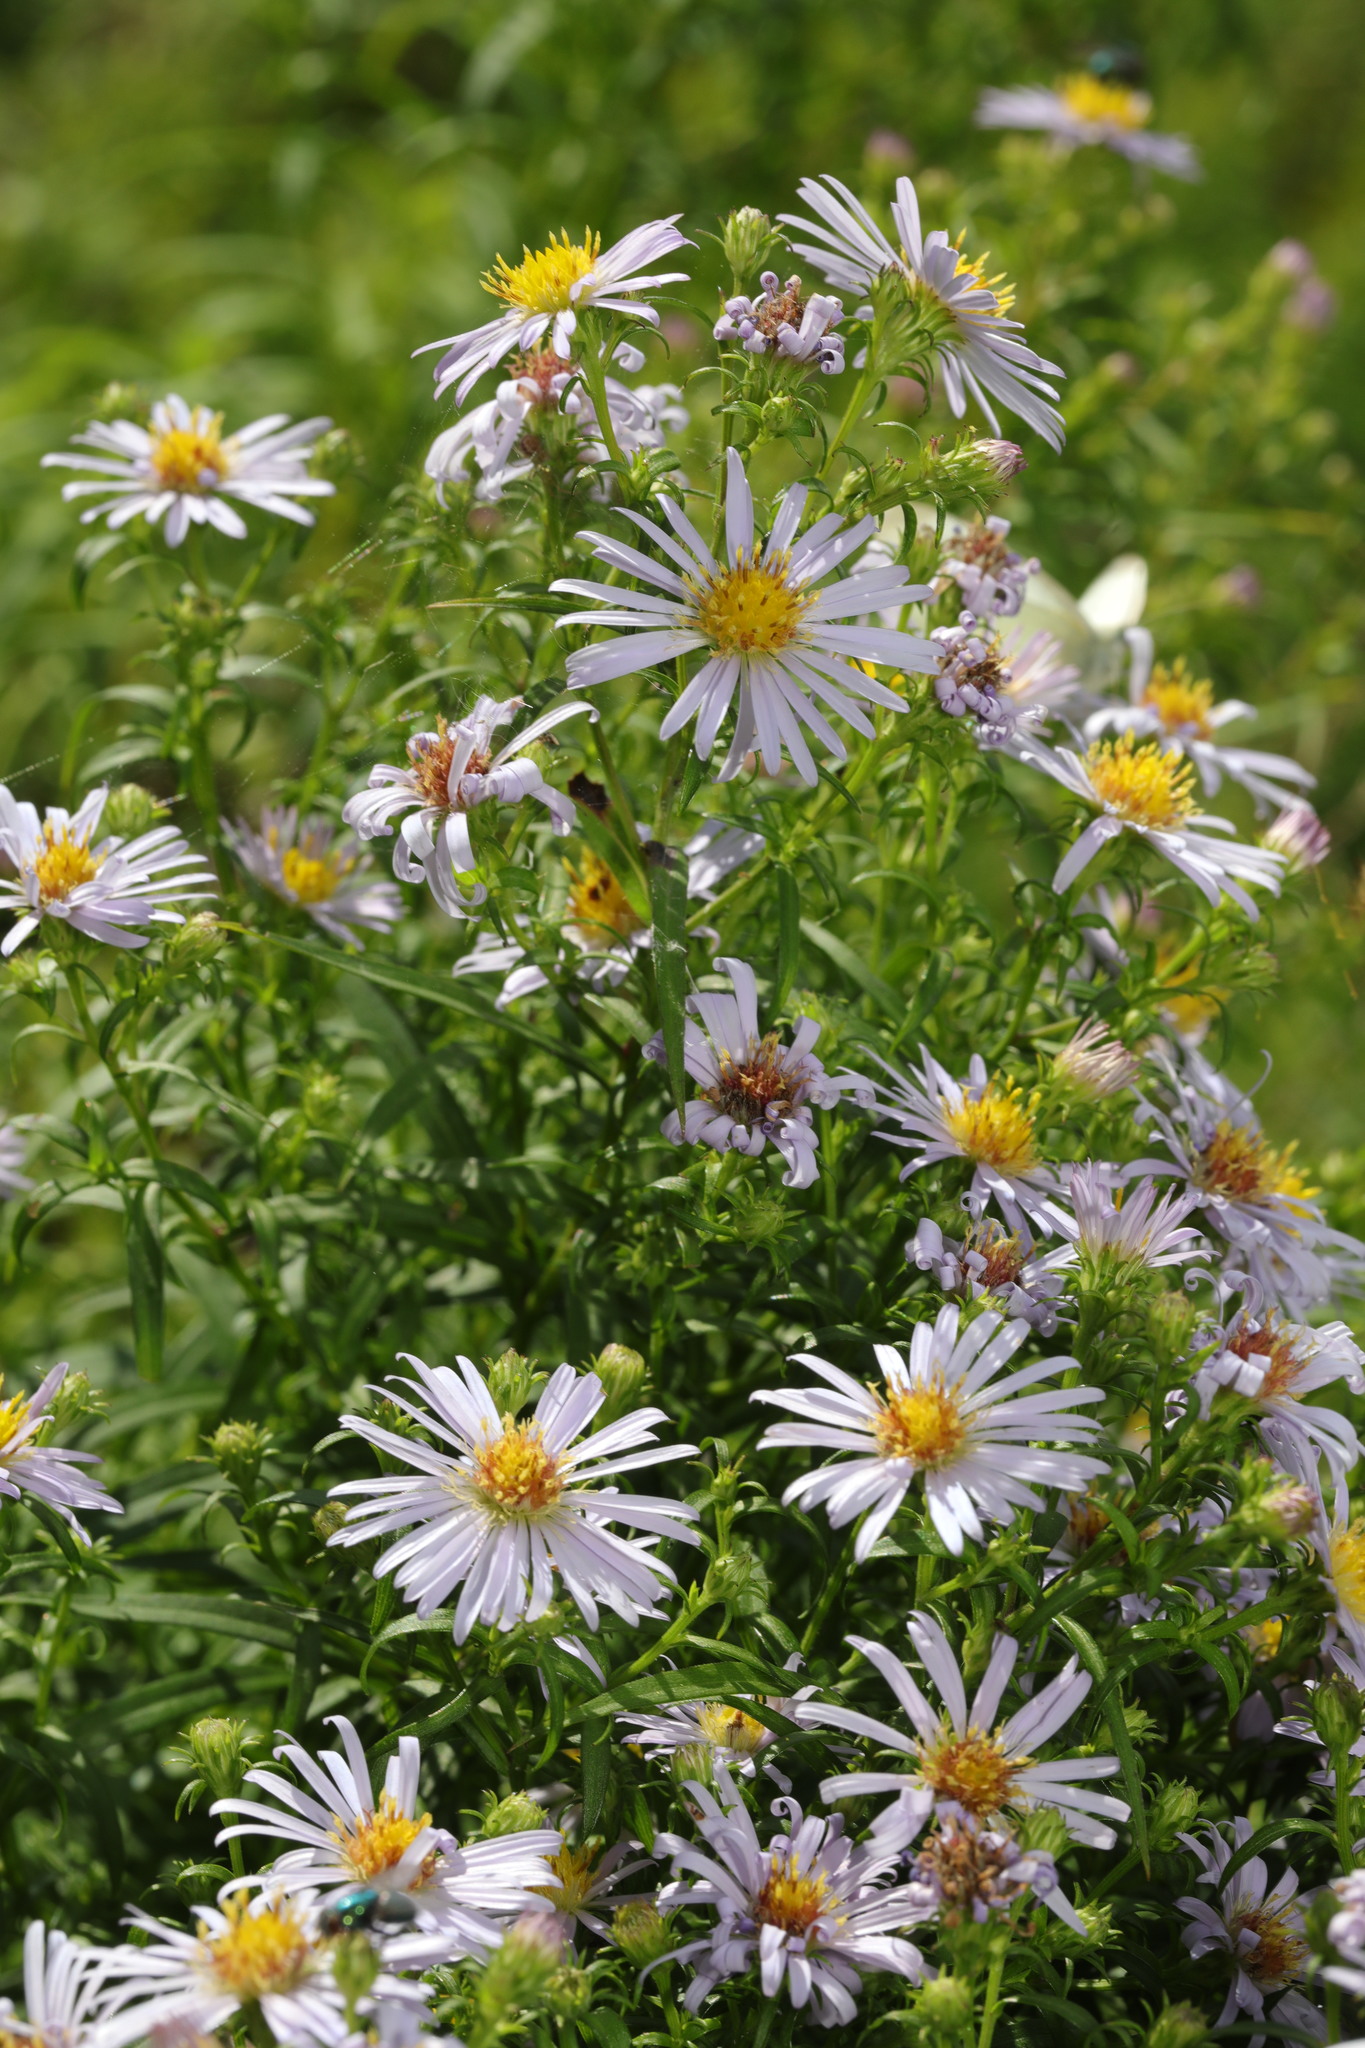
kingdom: Plantae
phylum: Tracheophyta
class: Magnoliopsida
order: Asterales
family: Asteraceae
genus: Symphyotrichum
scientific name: Symphyotrichum
